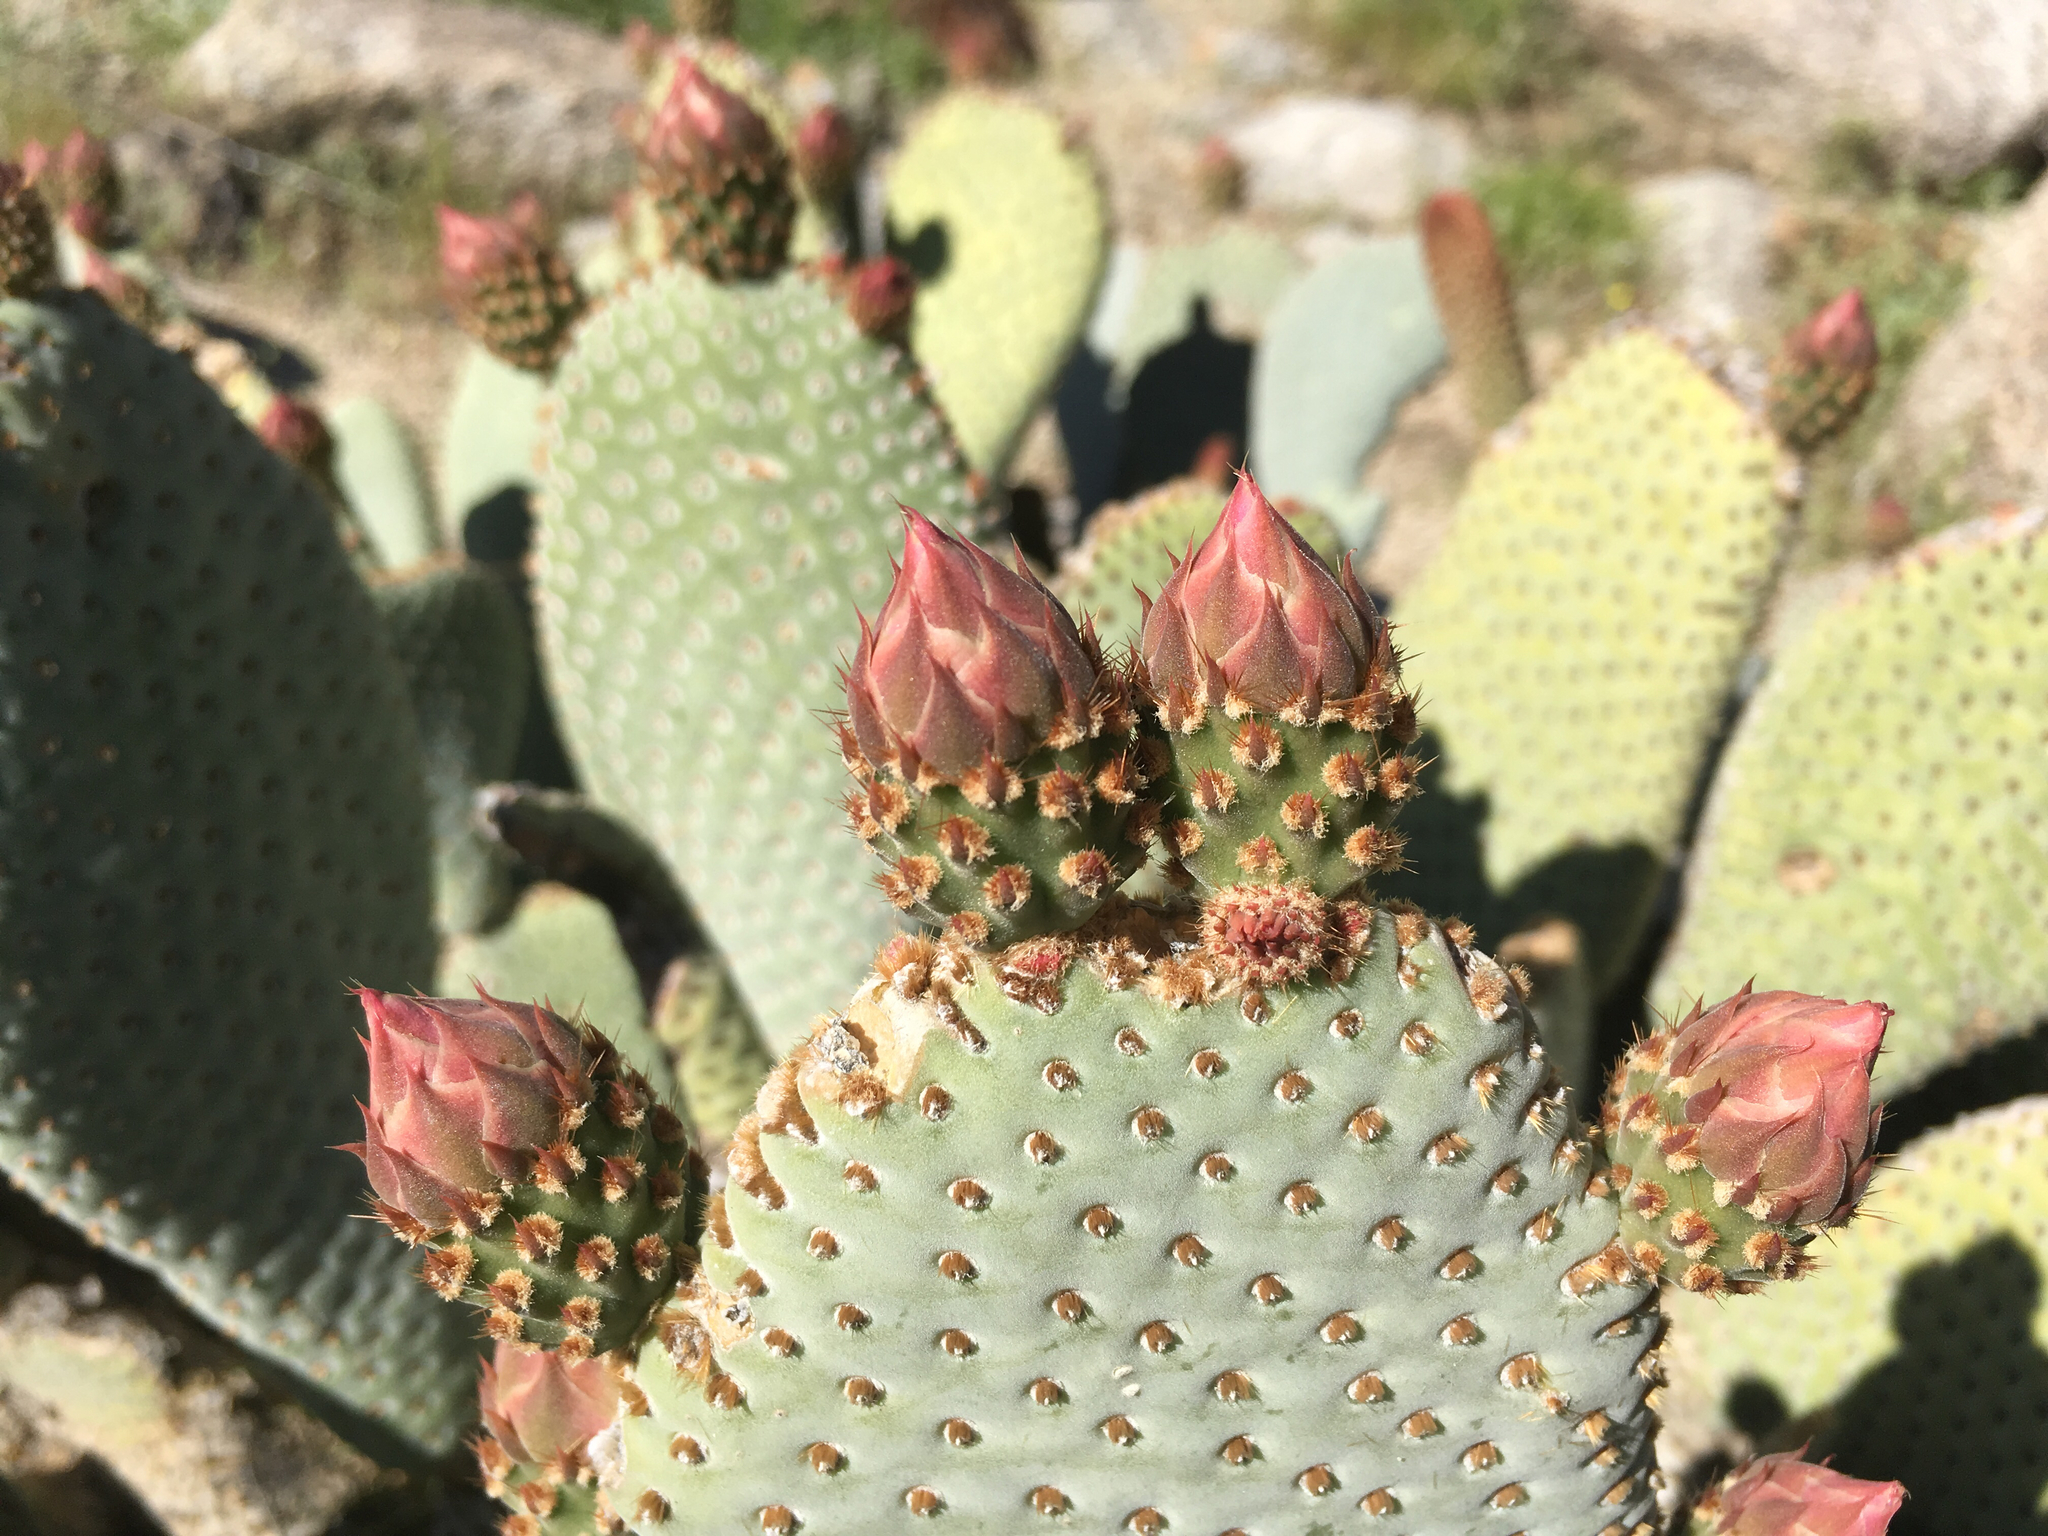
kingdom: Plantae
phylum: Tracheophyta
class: Magnoliopsida
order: Caryophyllales
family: Cactaceae
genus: Opuntia
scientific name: Opuntia basilaris
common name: Beavertail prickly-pear
